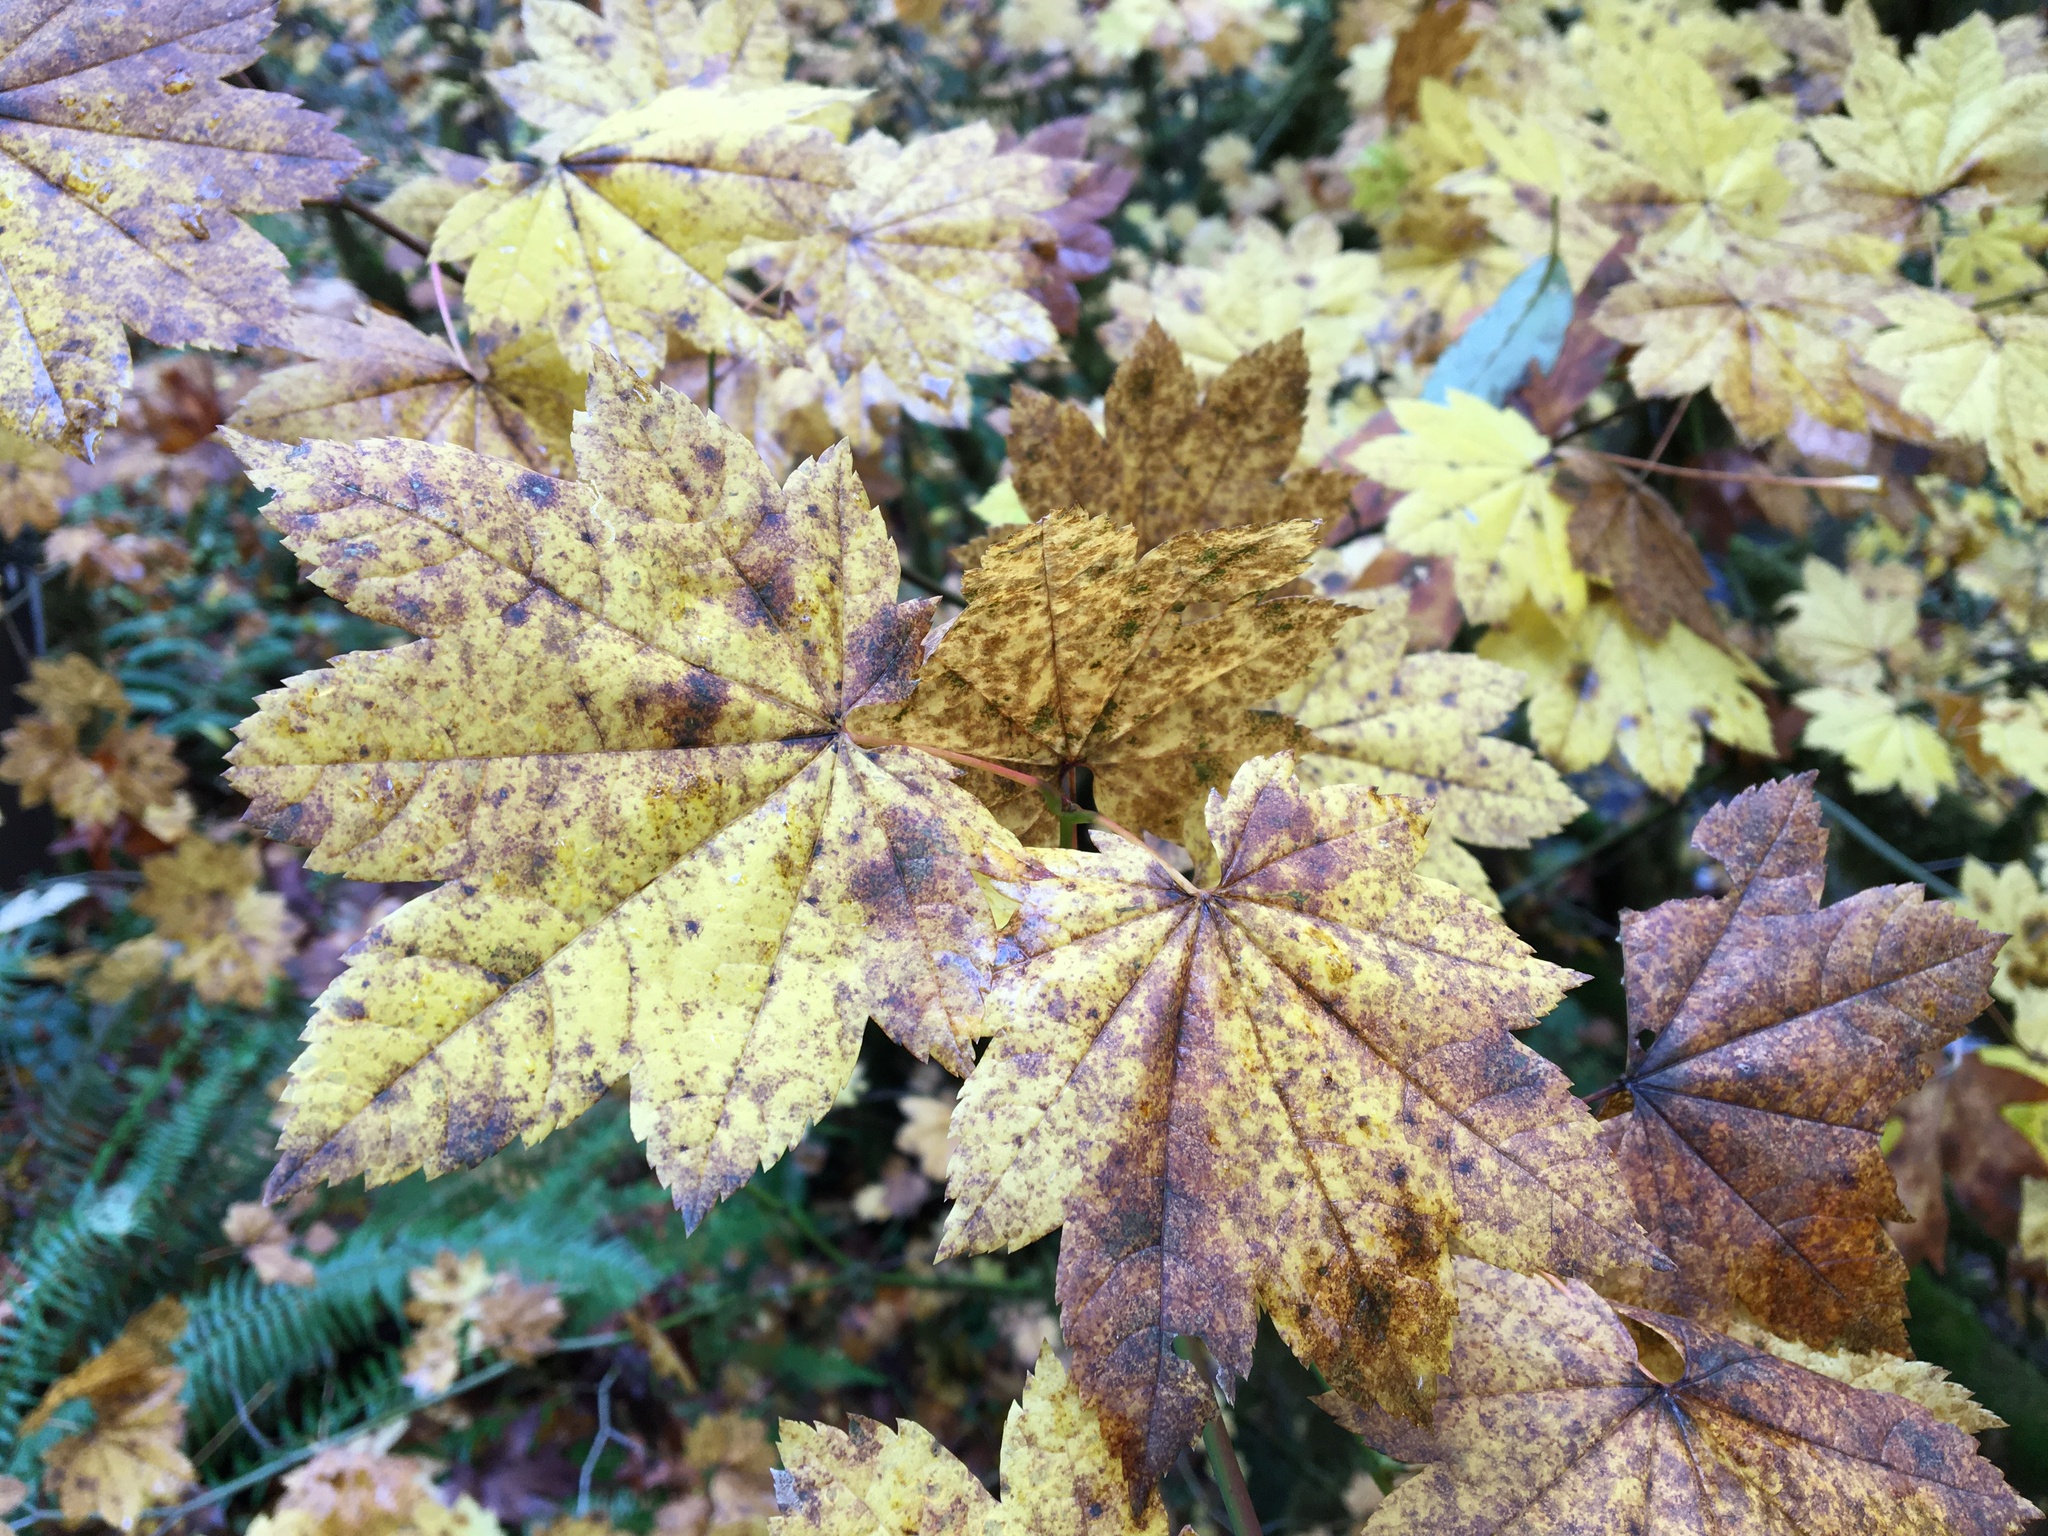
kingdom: Plantae
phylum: Tracheophyta
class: Magnoliopsida
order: Sapindales
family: Sapindaceae
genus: Acer
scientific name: Acer circinatum
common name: Vine maple
